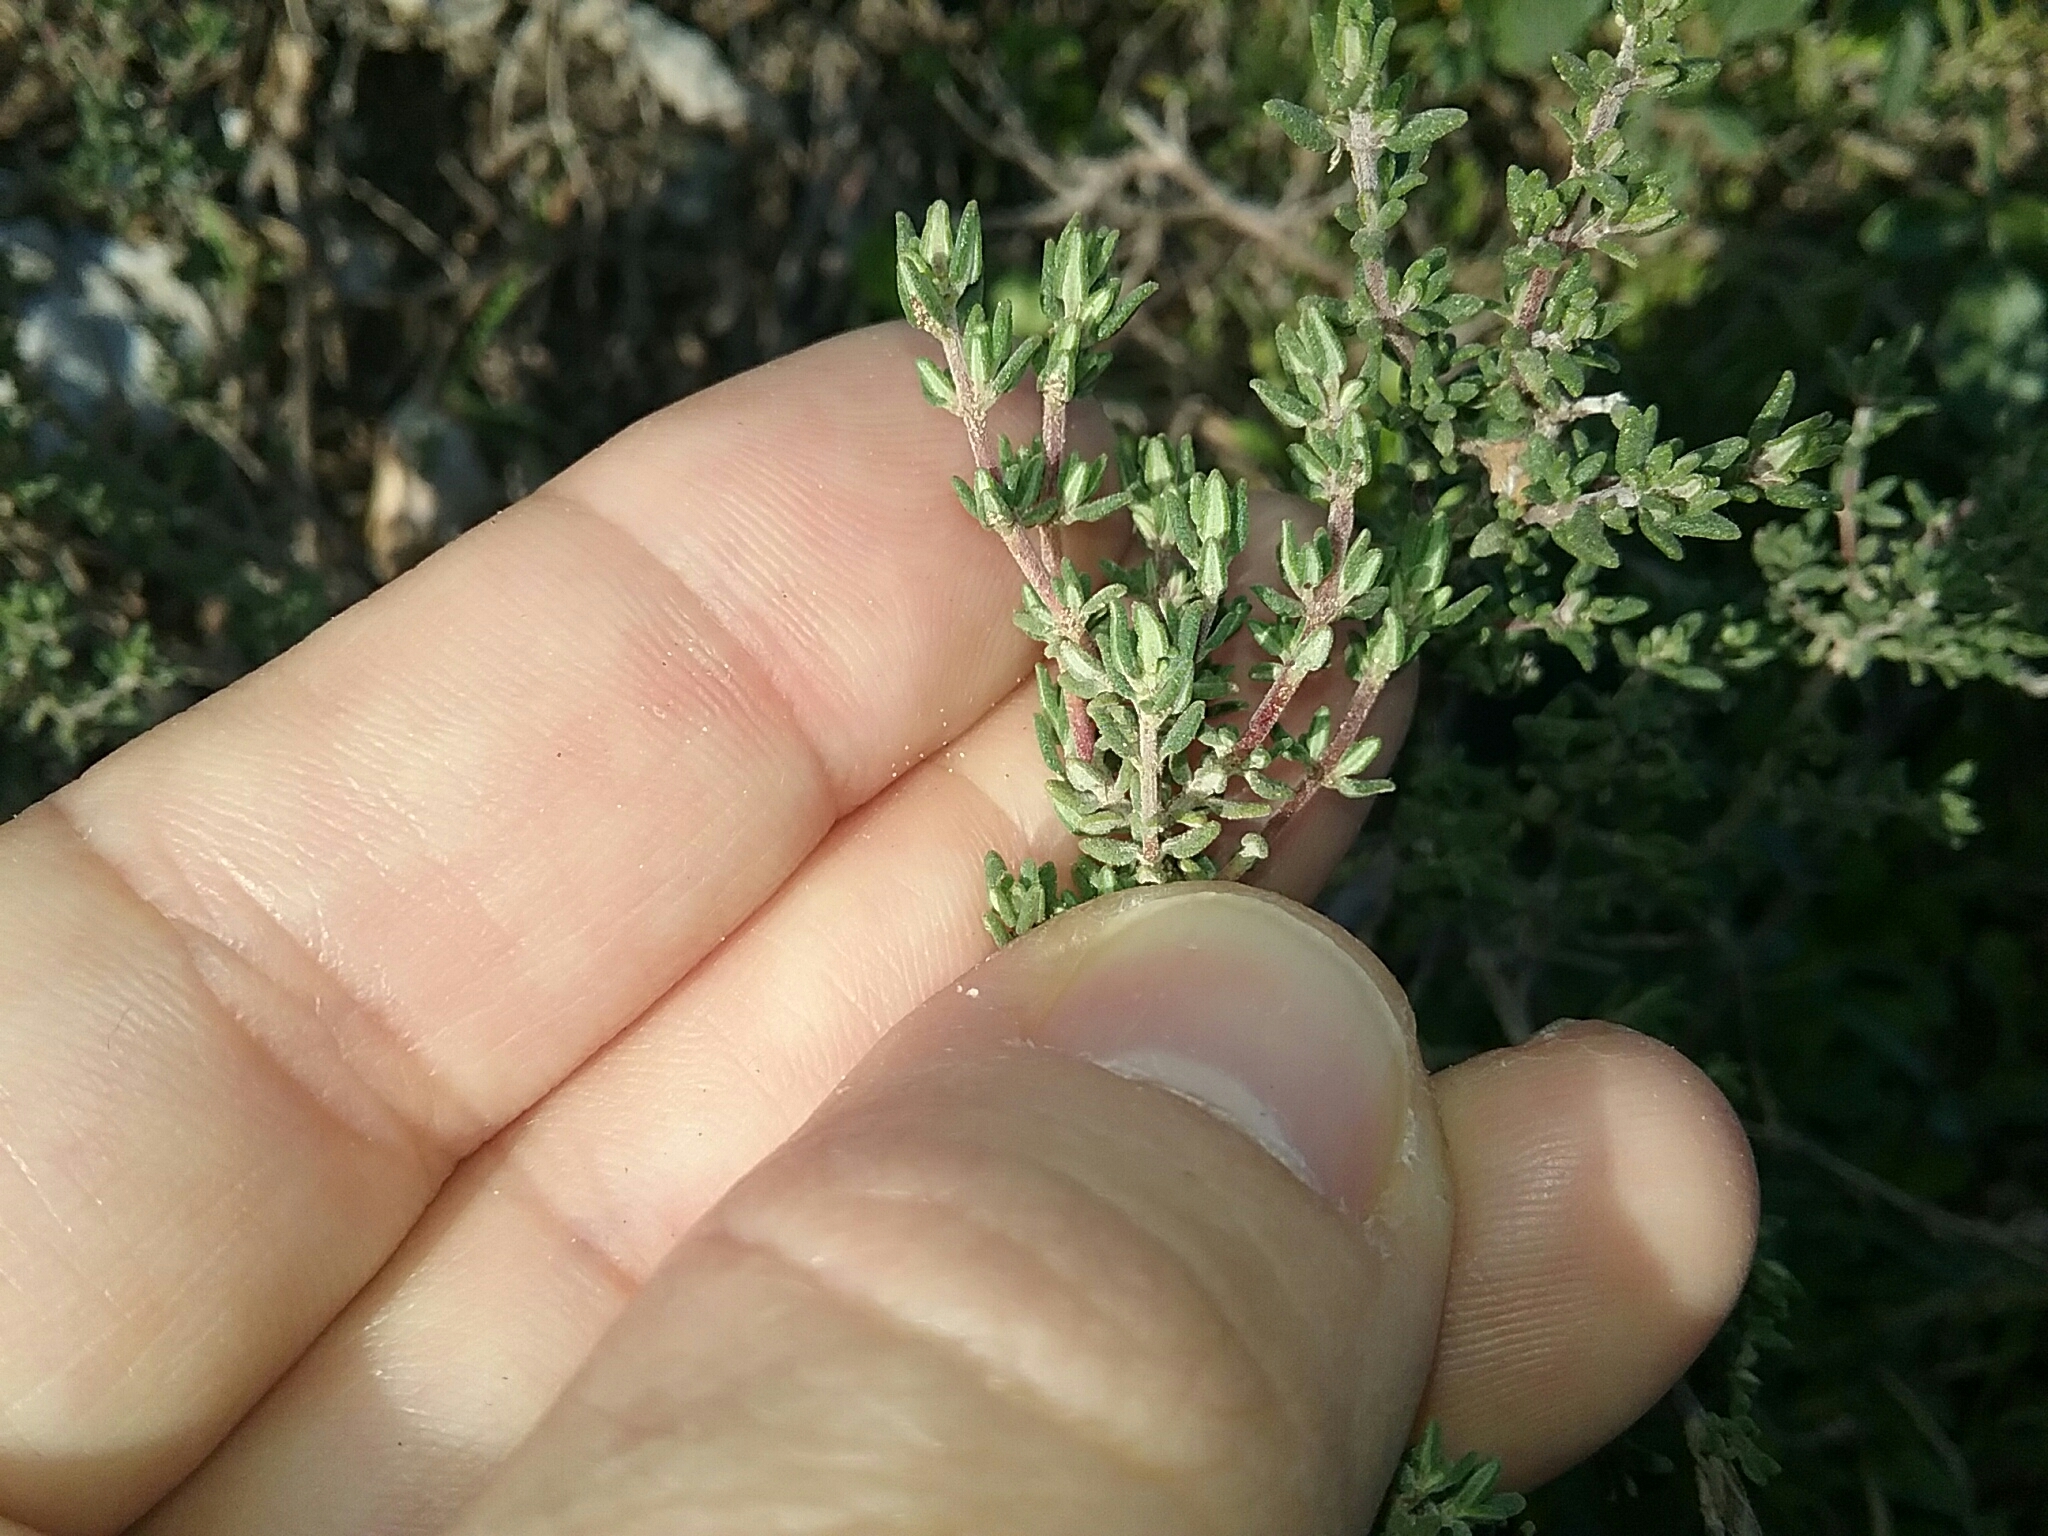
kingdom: Plantae
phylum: Tracheophyta
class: Magnoliopsida
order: Lamiales
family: Lamiaceae
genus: Thymus
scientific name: Thymus vulgaris
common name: Garden thyme
